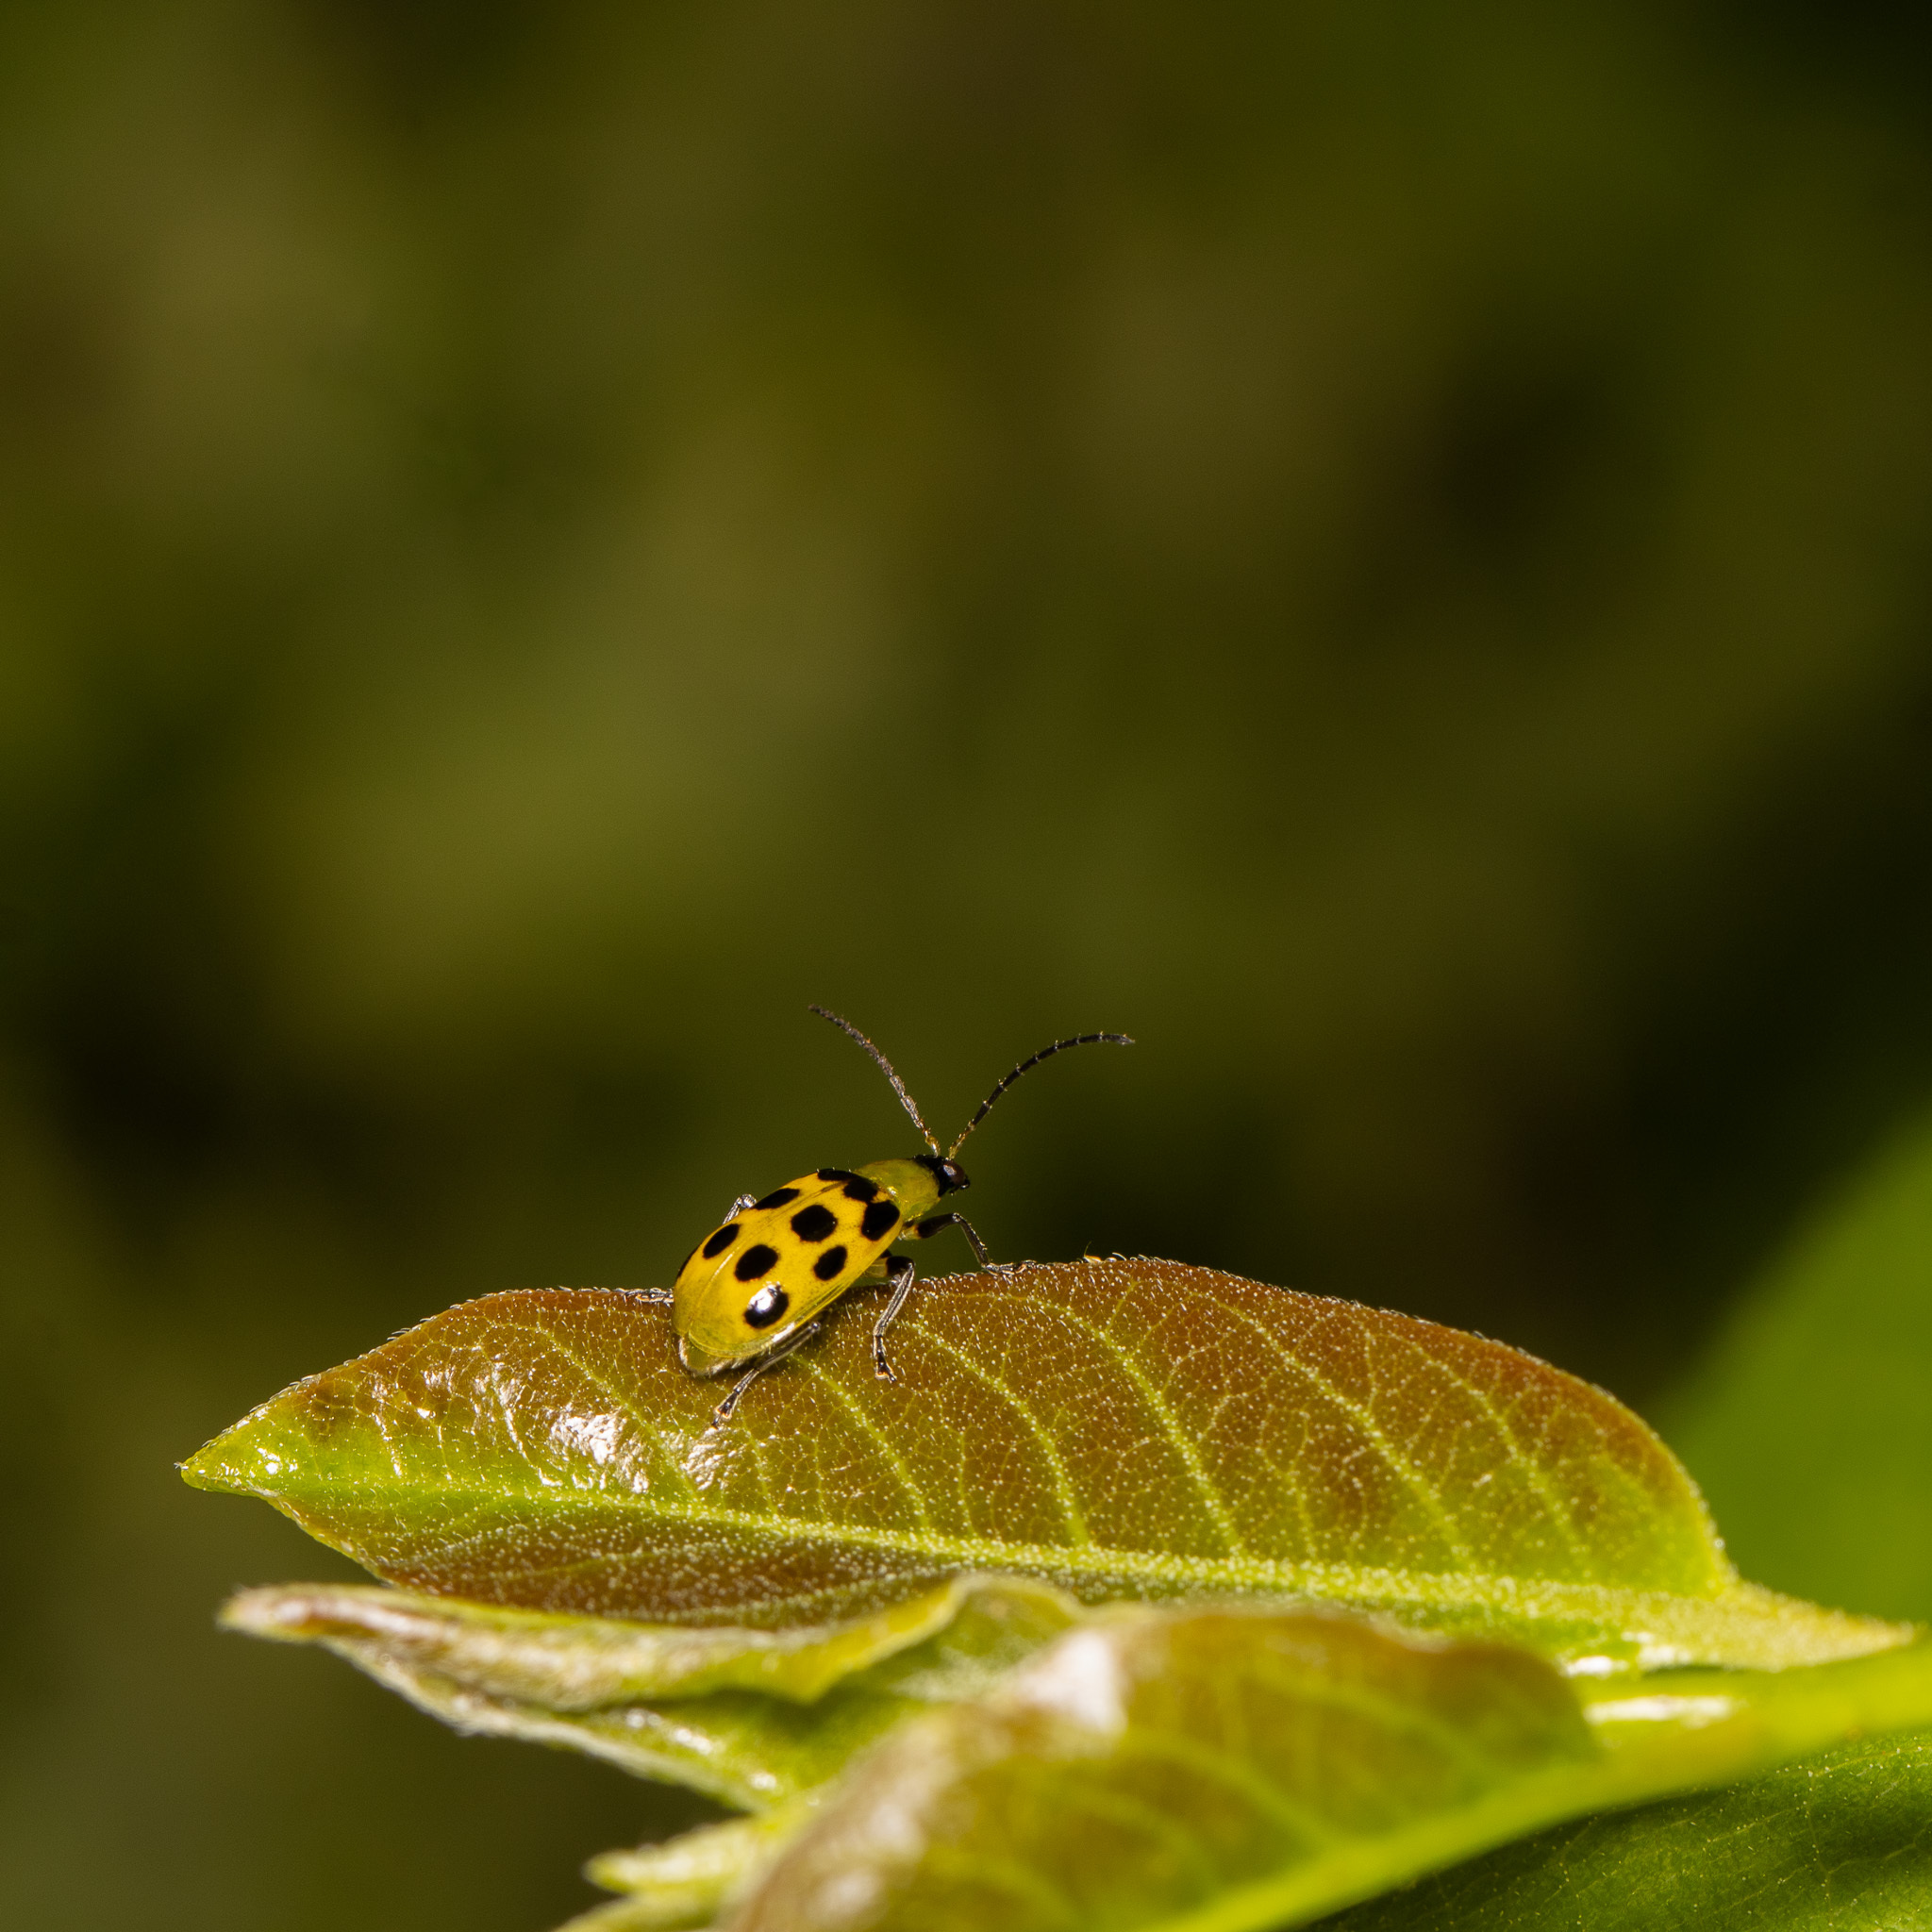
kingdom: Animalia
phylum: Arthropoda
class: Insecta
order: Coleoptera
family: Chrysomelidae
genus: Diabrotica
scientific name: Diabrotica undecimpunctata
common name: Spotted cucumber beetle
